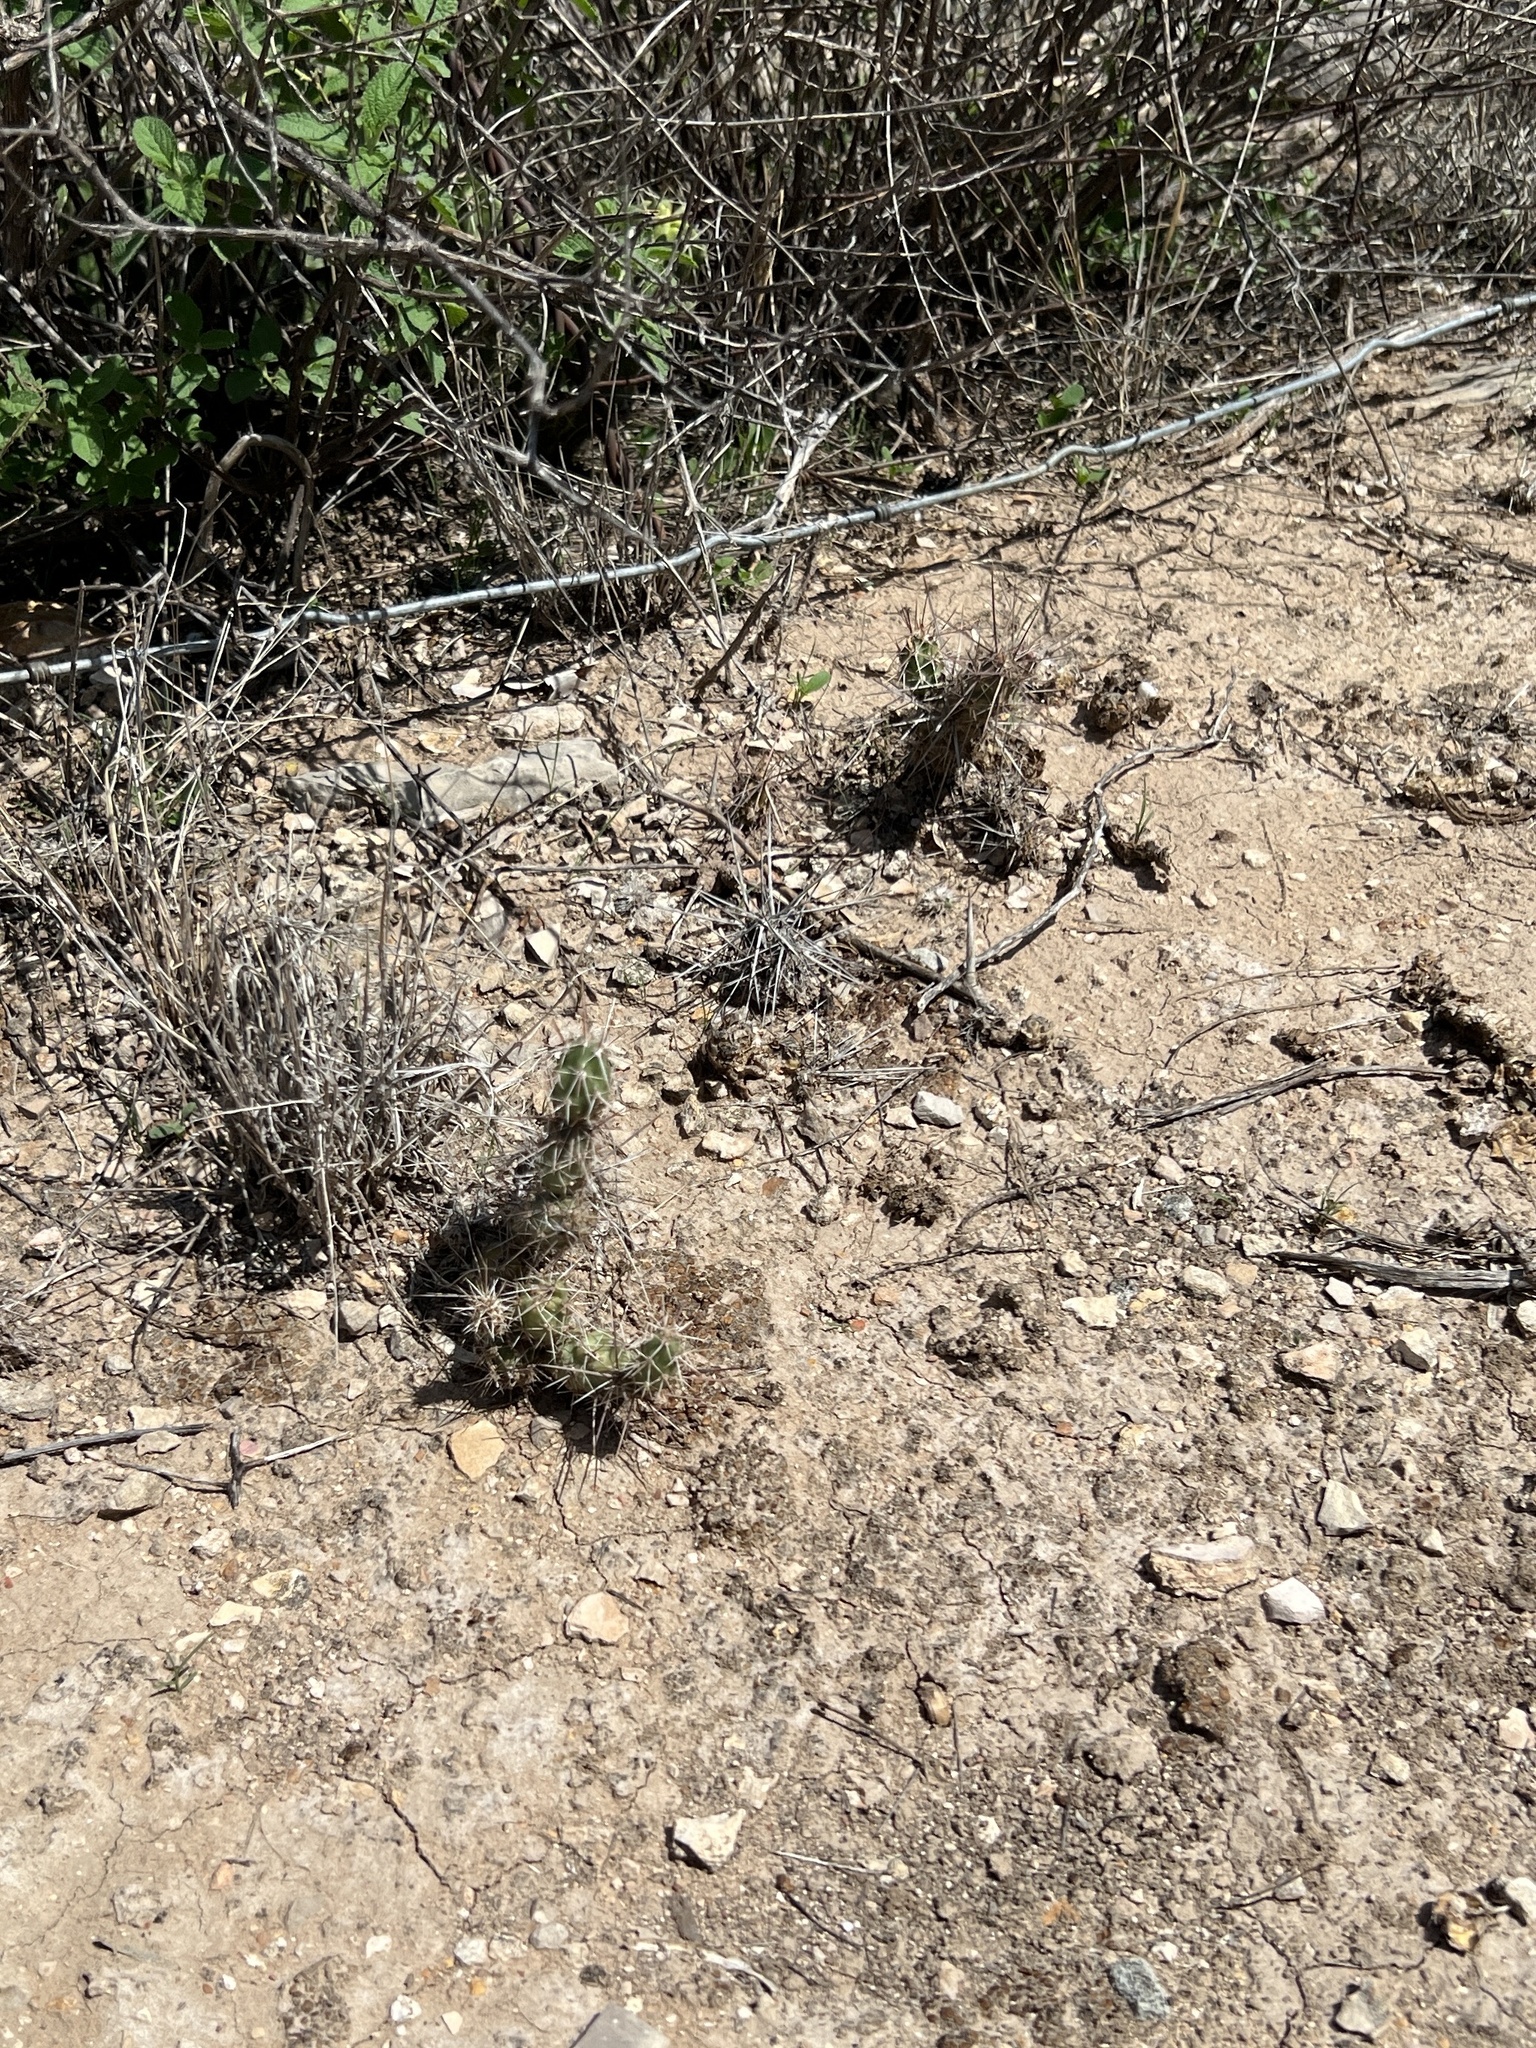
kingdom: Plantae
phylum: Tracheophyta
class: Magnoliopsida
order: Caryophyllales
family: Cactaceae
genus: Grusonia
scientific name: Grusonia schottii
